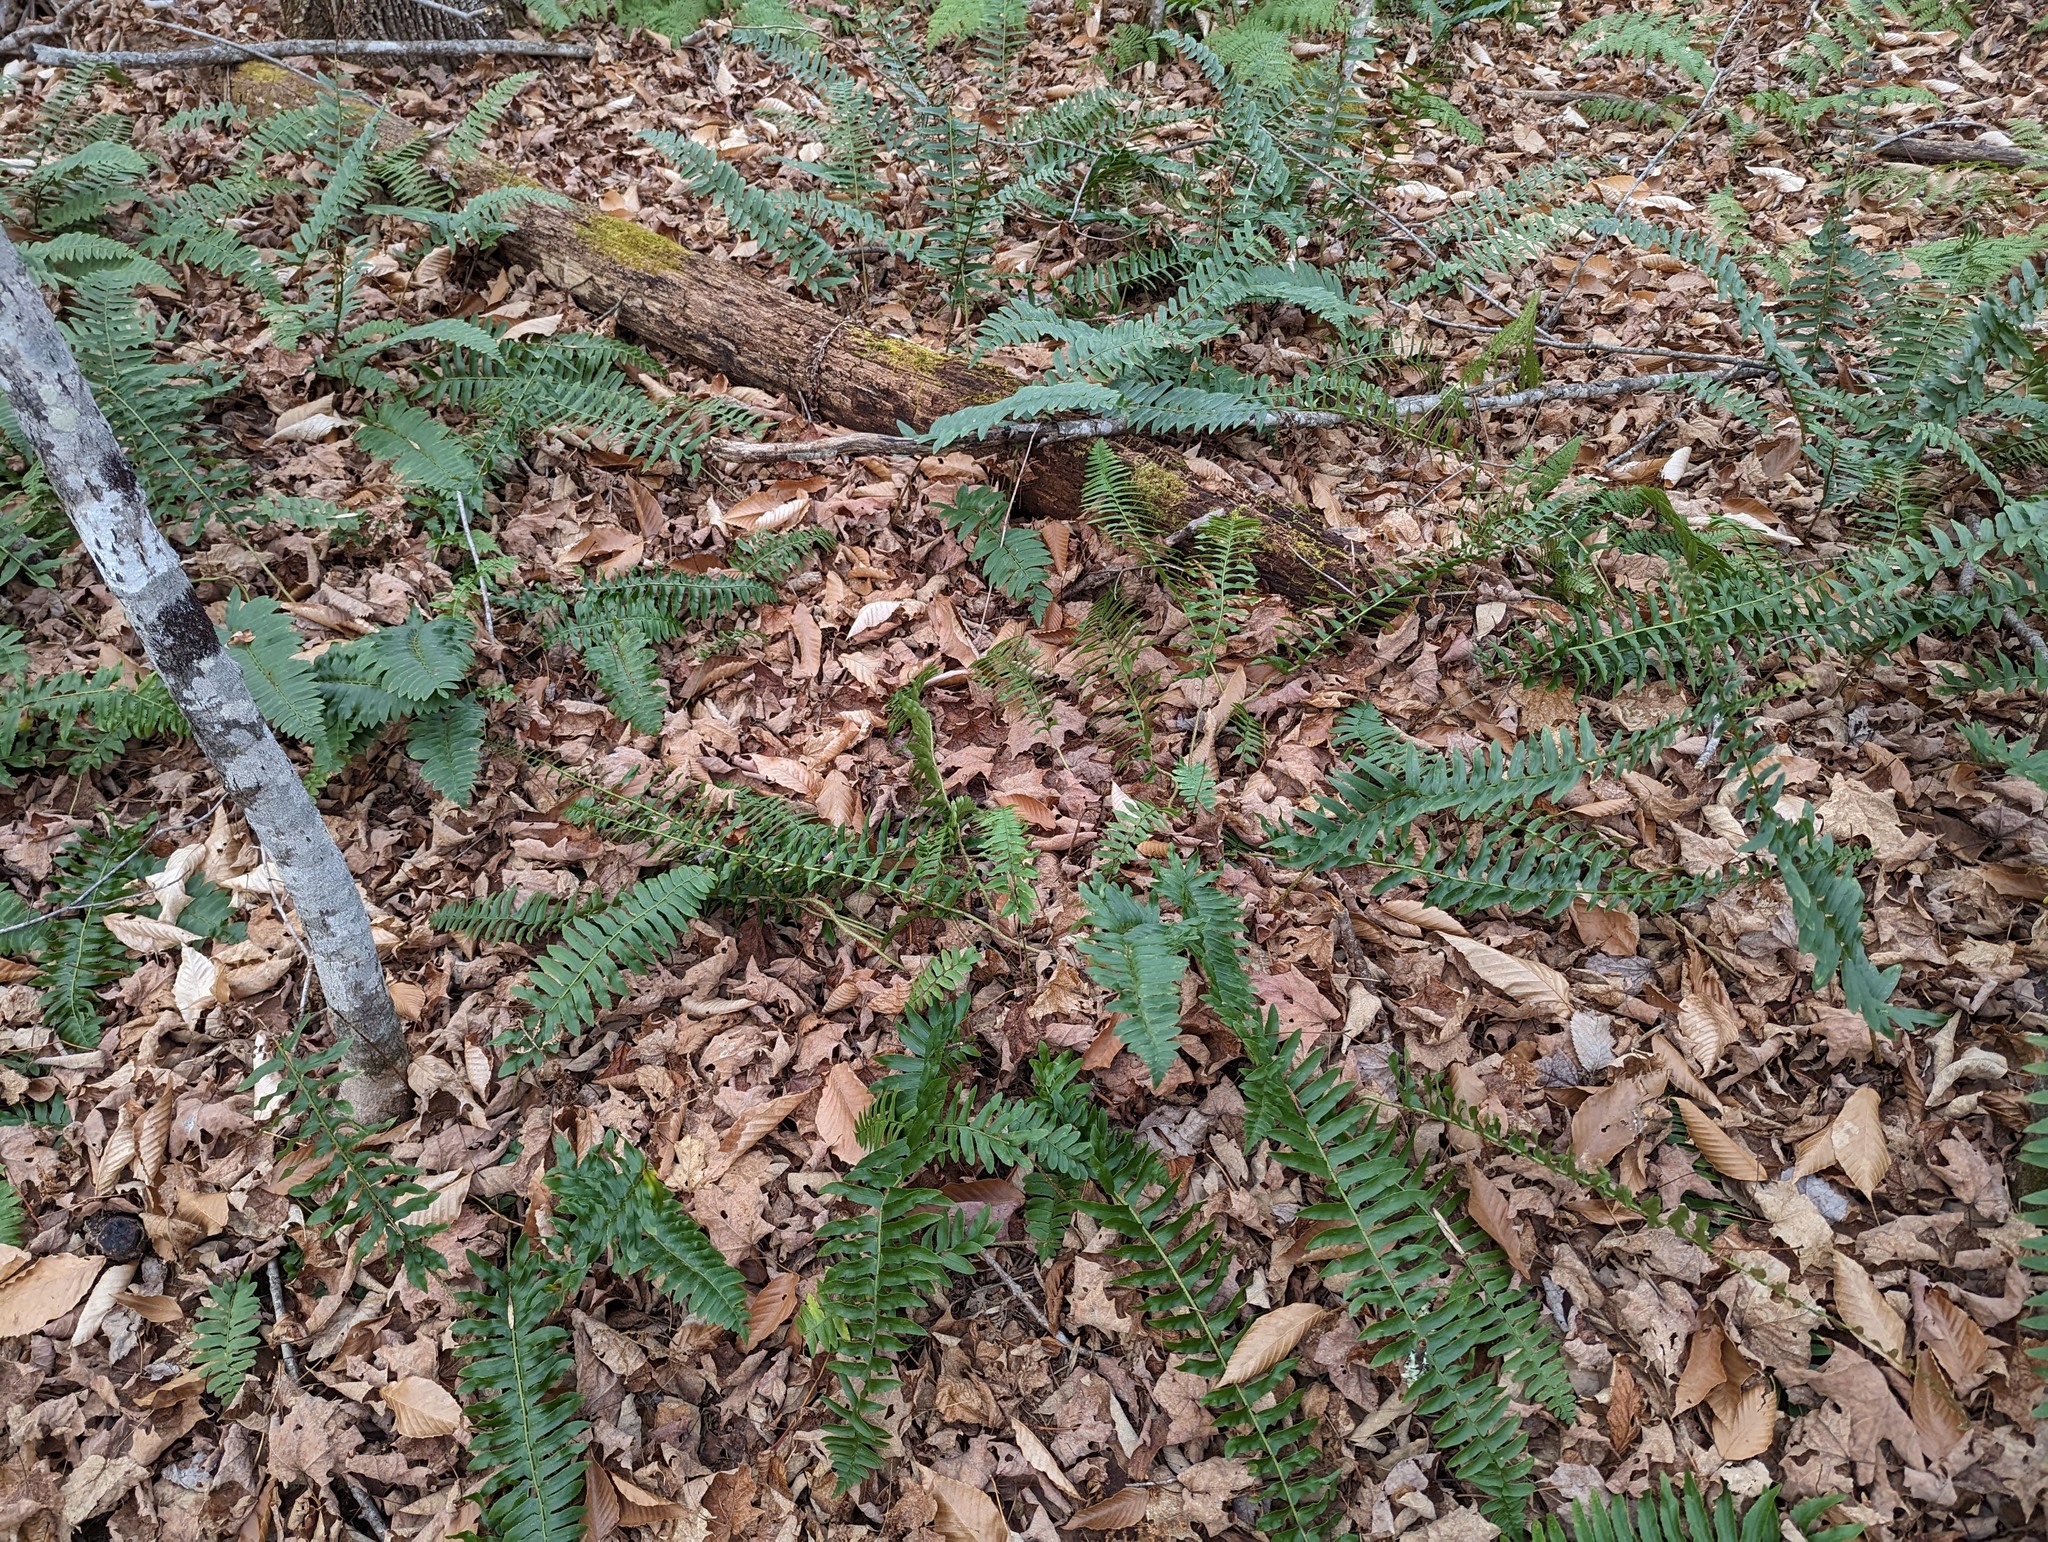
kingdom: Plantae
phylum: Tracheophyta
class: Polypodiopsida
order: Polypodiales
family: Dryopteridaceae
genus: Polystichum
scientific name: Polystichum acrostichoides
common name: Christmas fern
